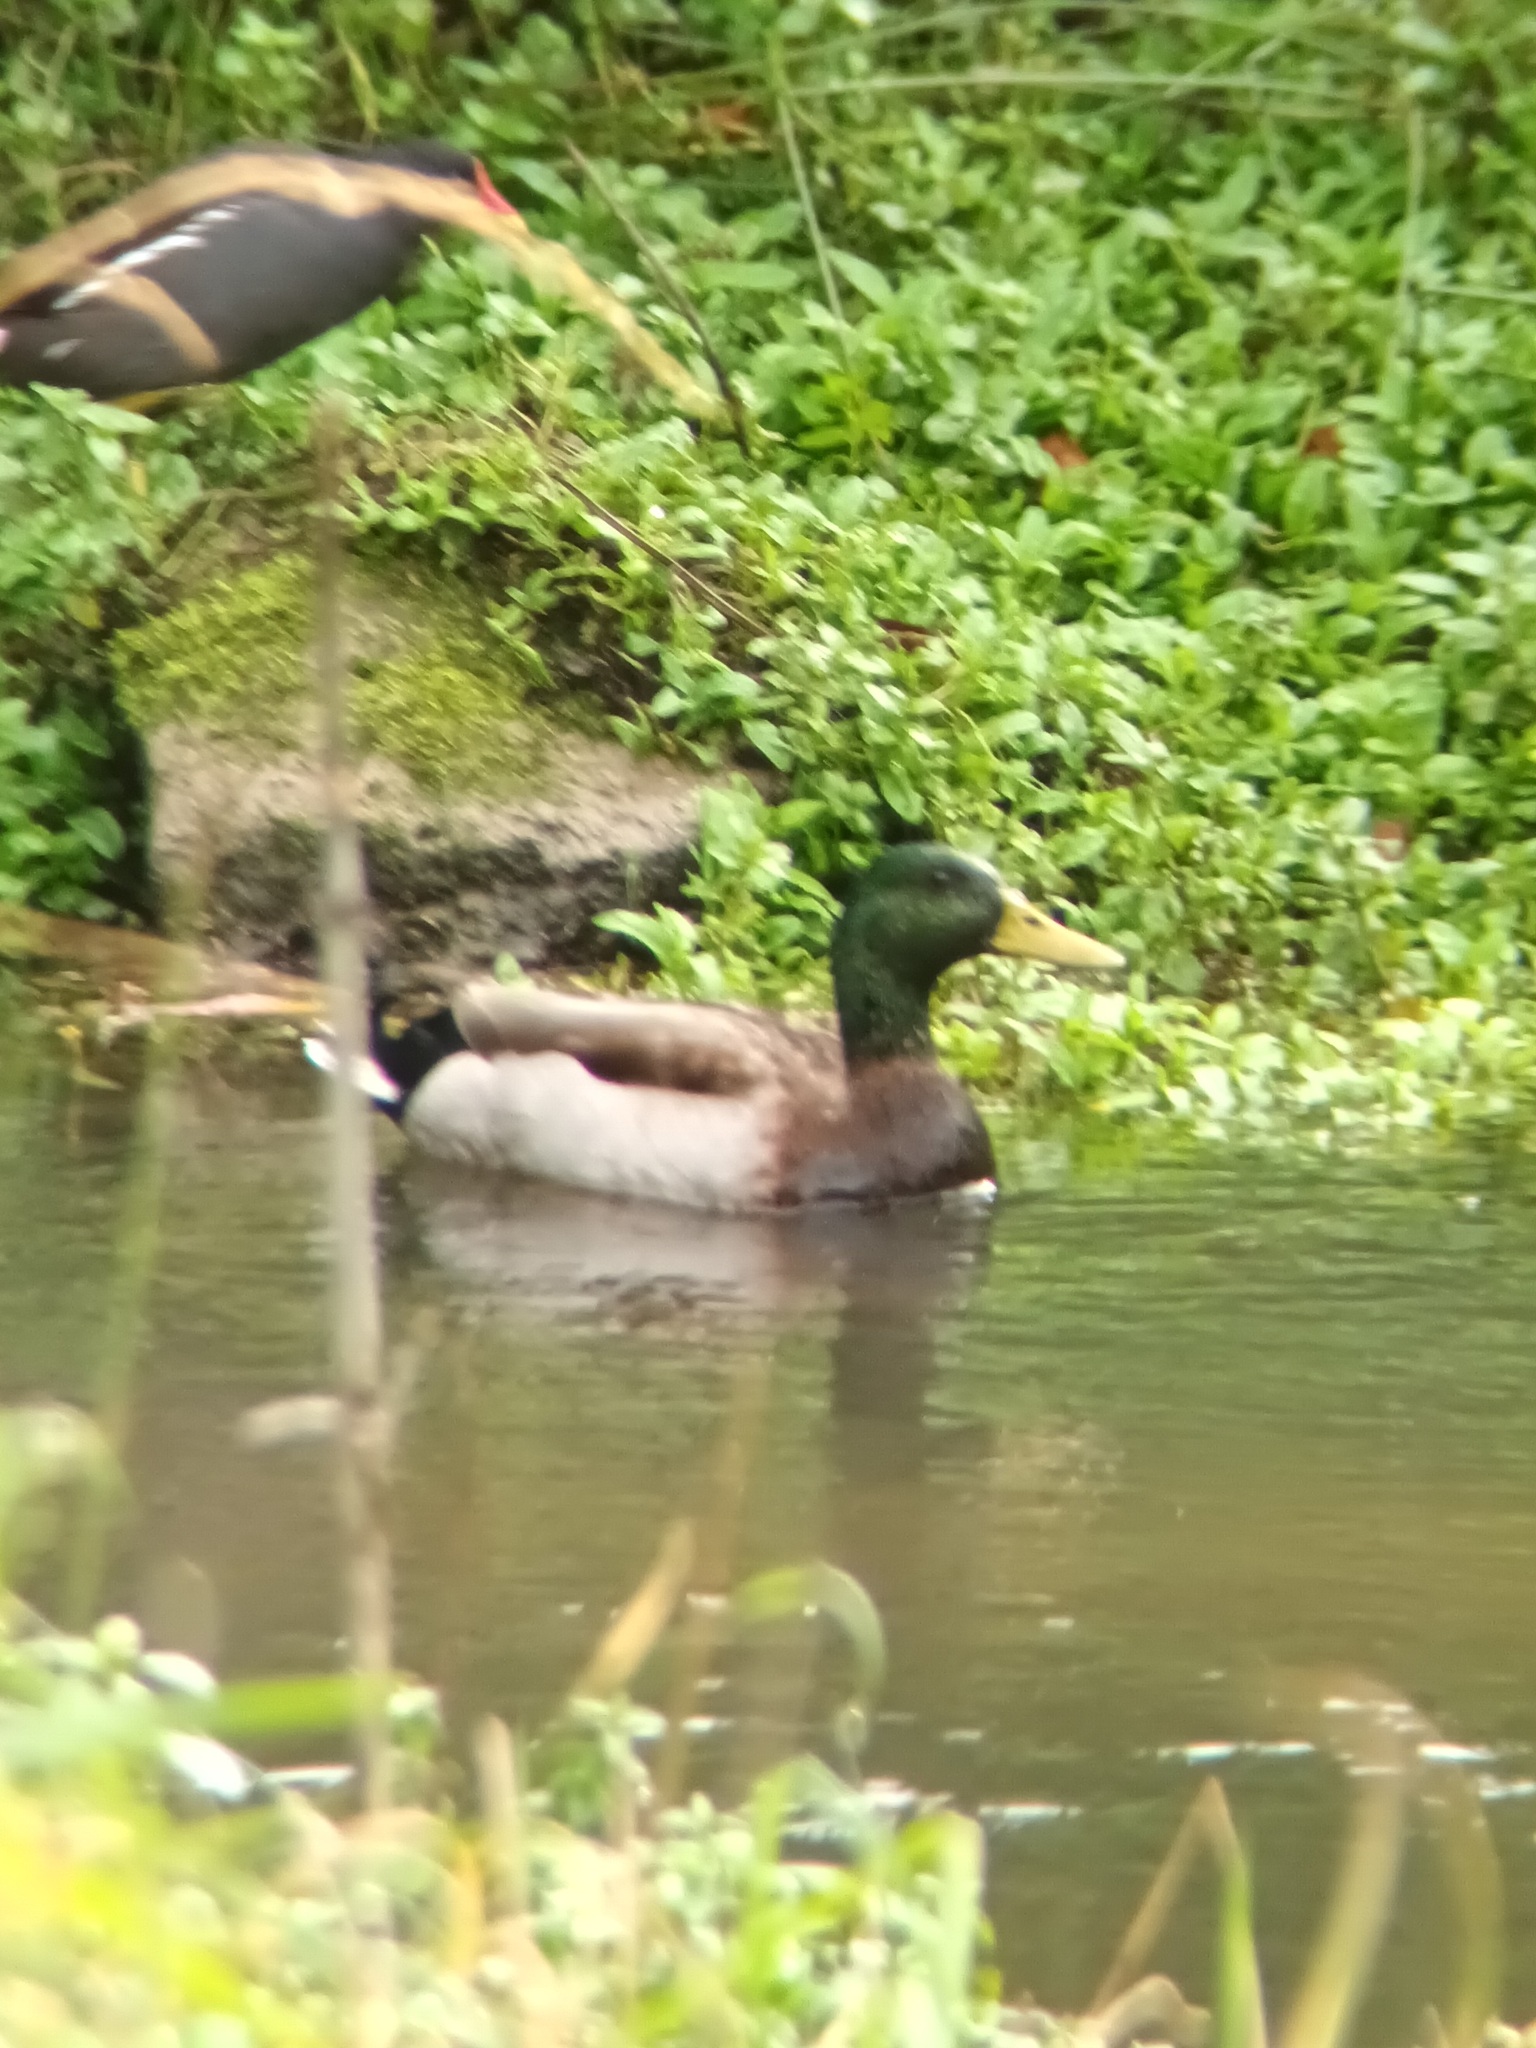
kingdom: Animalia
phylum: Chordata
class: Aves
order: Anseriformes
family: Anatidae
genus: Anas
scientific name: Anas platyrhynchos
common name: Mallard
